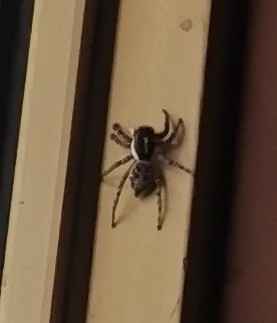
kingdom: Animalia
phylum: Arthropoda
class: Arachnida
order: Araneae
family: Salticidae
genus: Menemerus
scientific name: Menemerus semilimbatus
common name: Jumping spider
